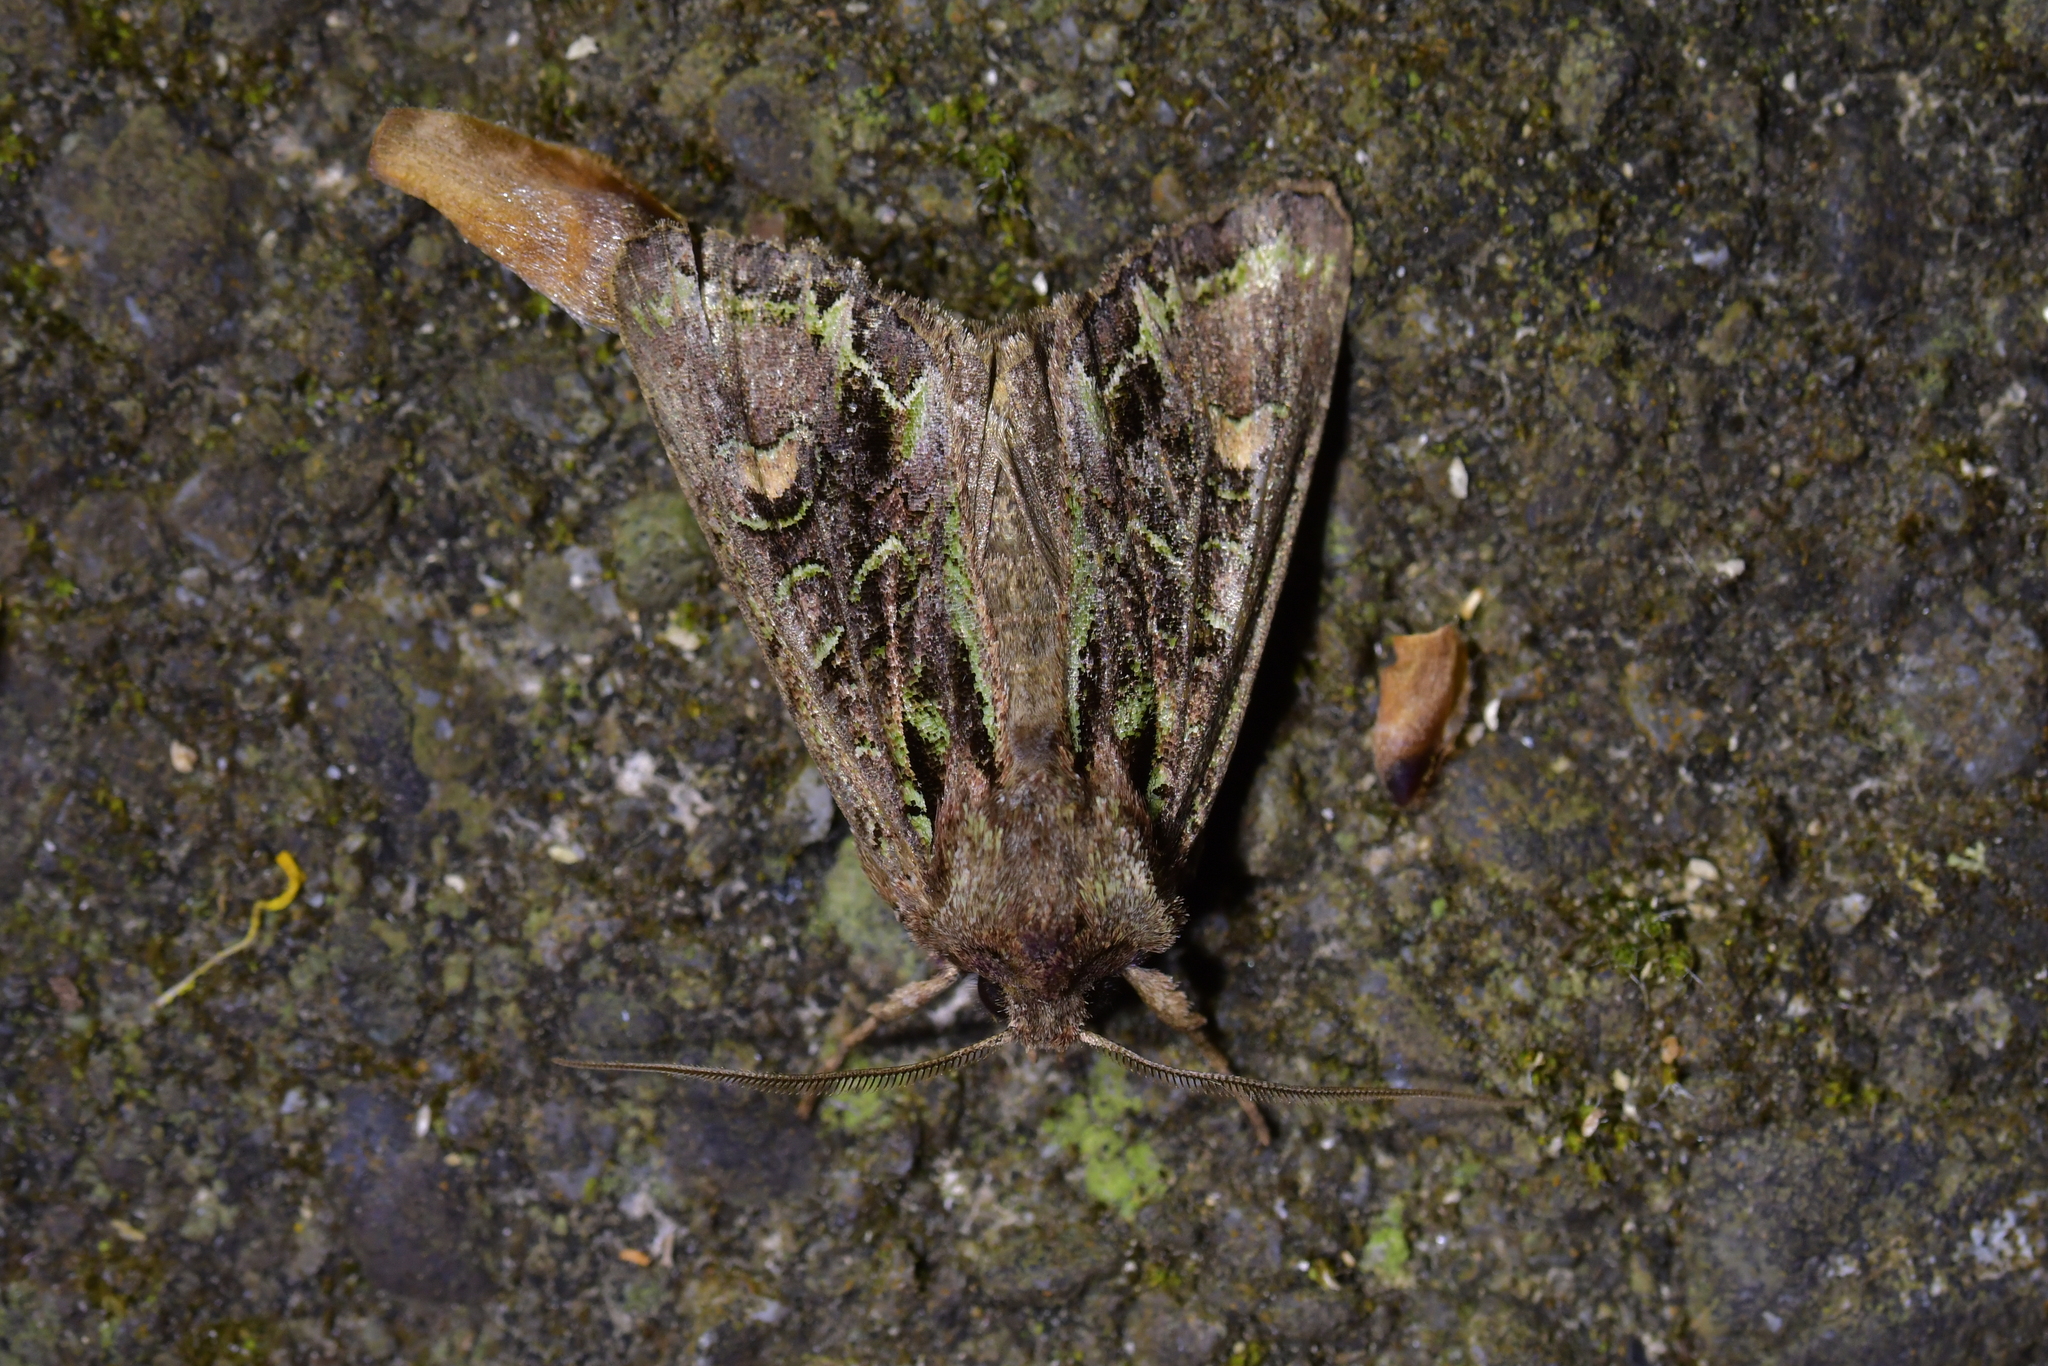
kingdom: Animalia
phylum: Arthropoda
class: Insecta
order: Lepidoptera
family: Noctuidae
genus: Ichneutica
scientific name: Ichneutica insignis
